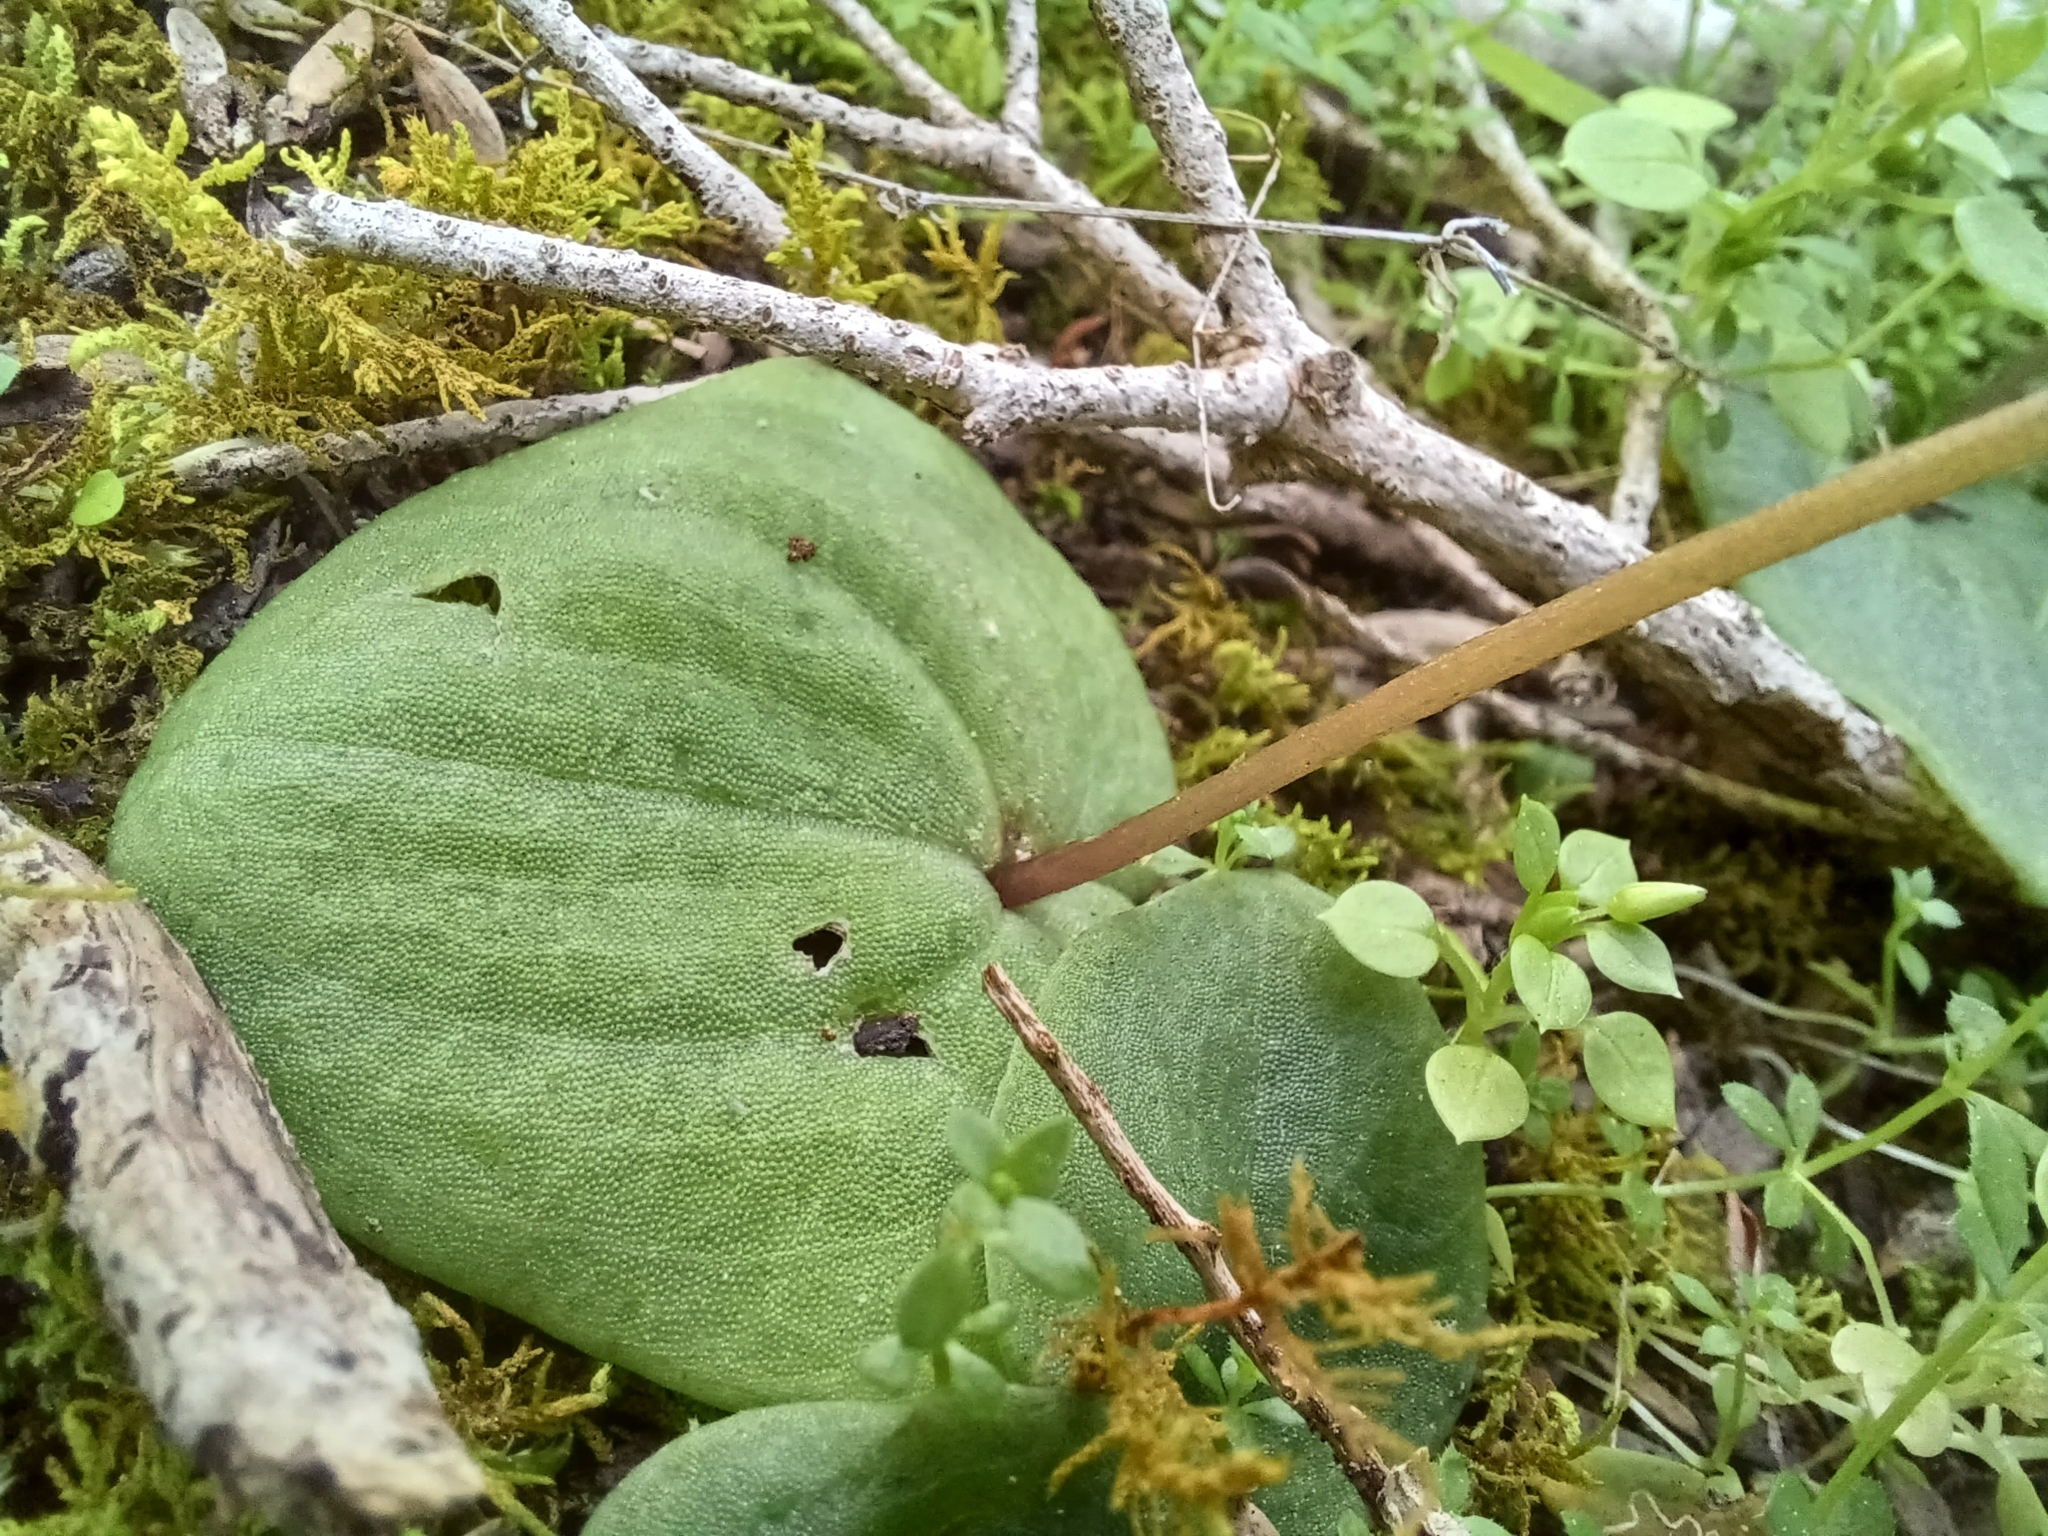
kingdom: Plantae
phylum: Tracheophyta
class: Liliopsida
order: Asparagales
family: Orchidaceae
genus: Cyrtostylis
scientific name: Cyrtostylis robusta
